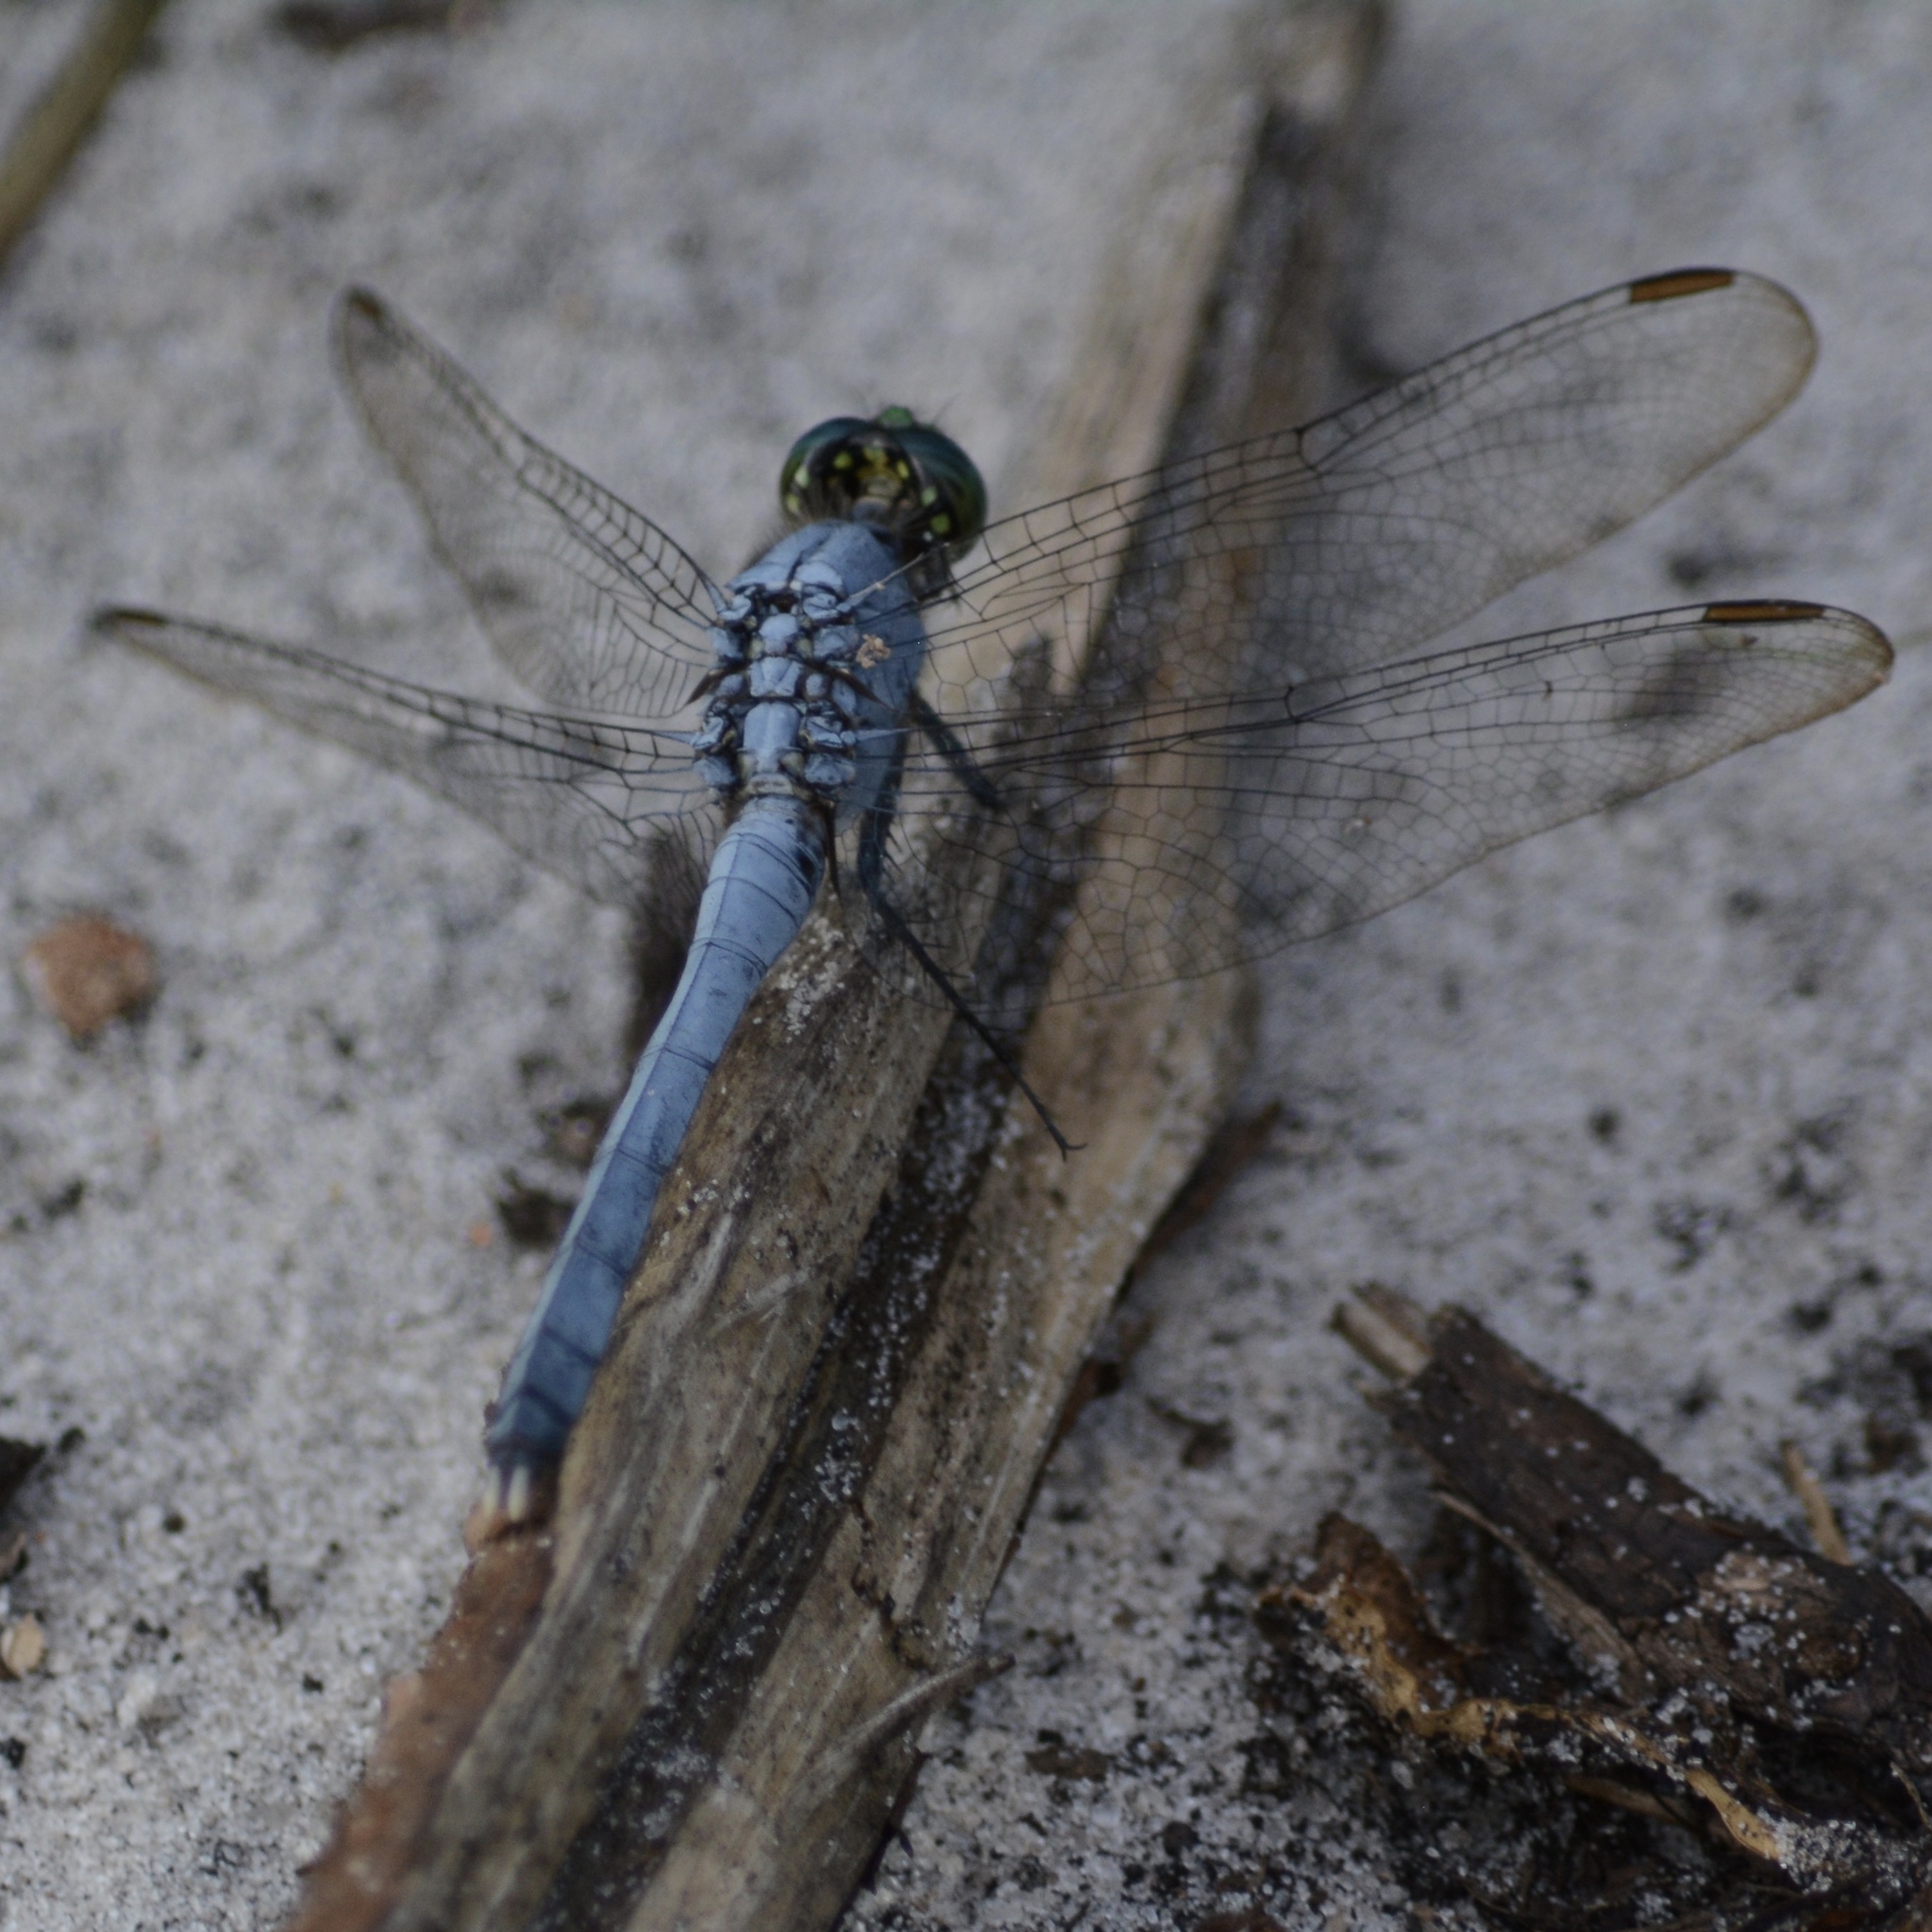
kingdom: Animalia
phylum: Arthropoda
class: Insecta
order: Odonata
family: Libellulidae
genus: Erythemis
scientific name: Erythemis simplicicollis
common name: Eastern pondhawk
